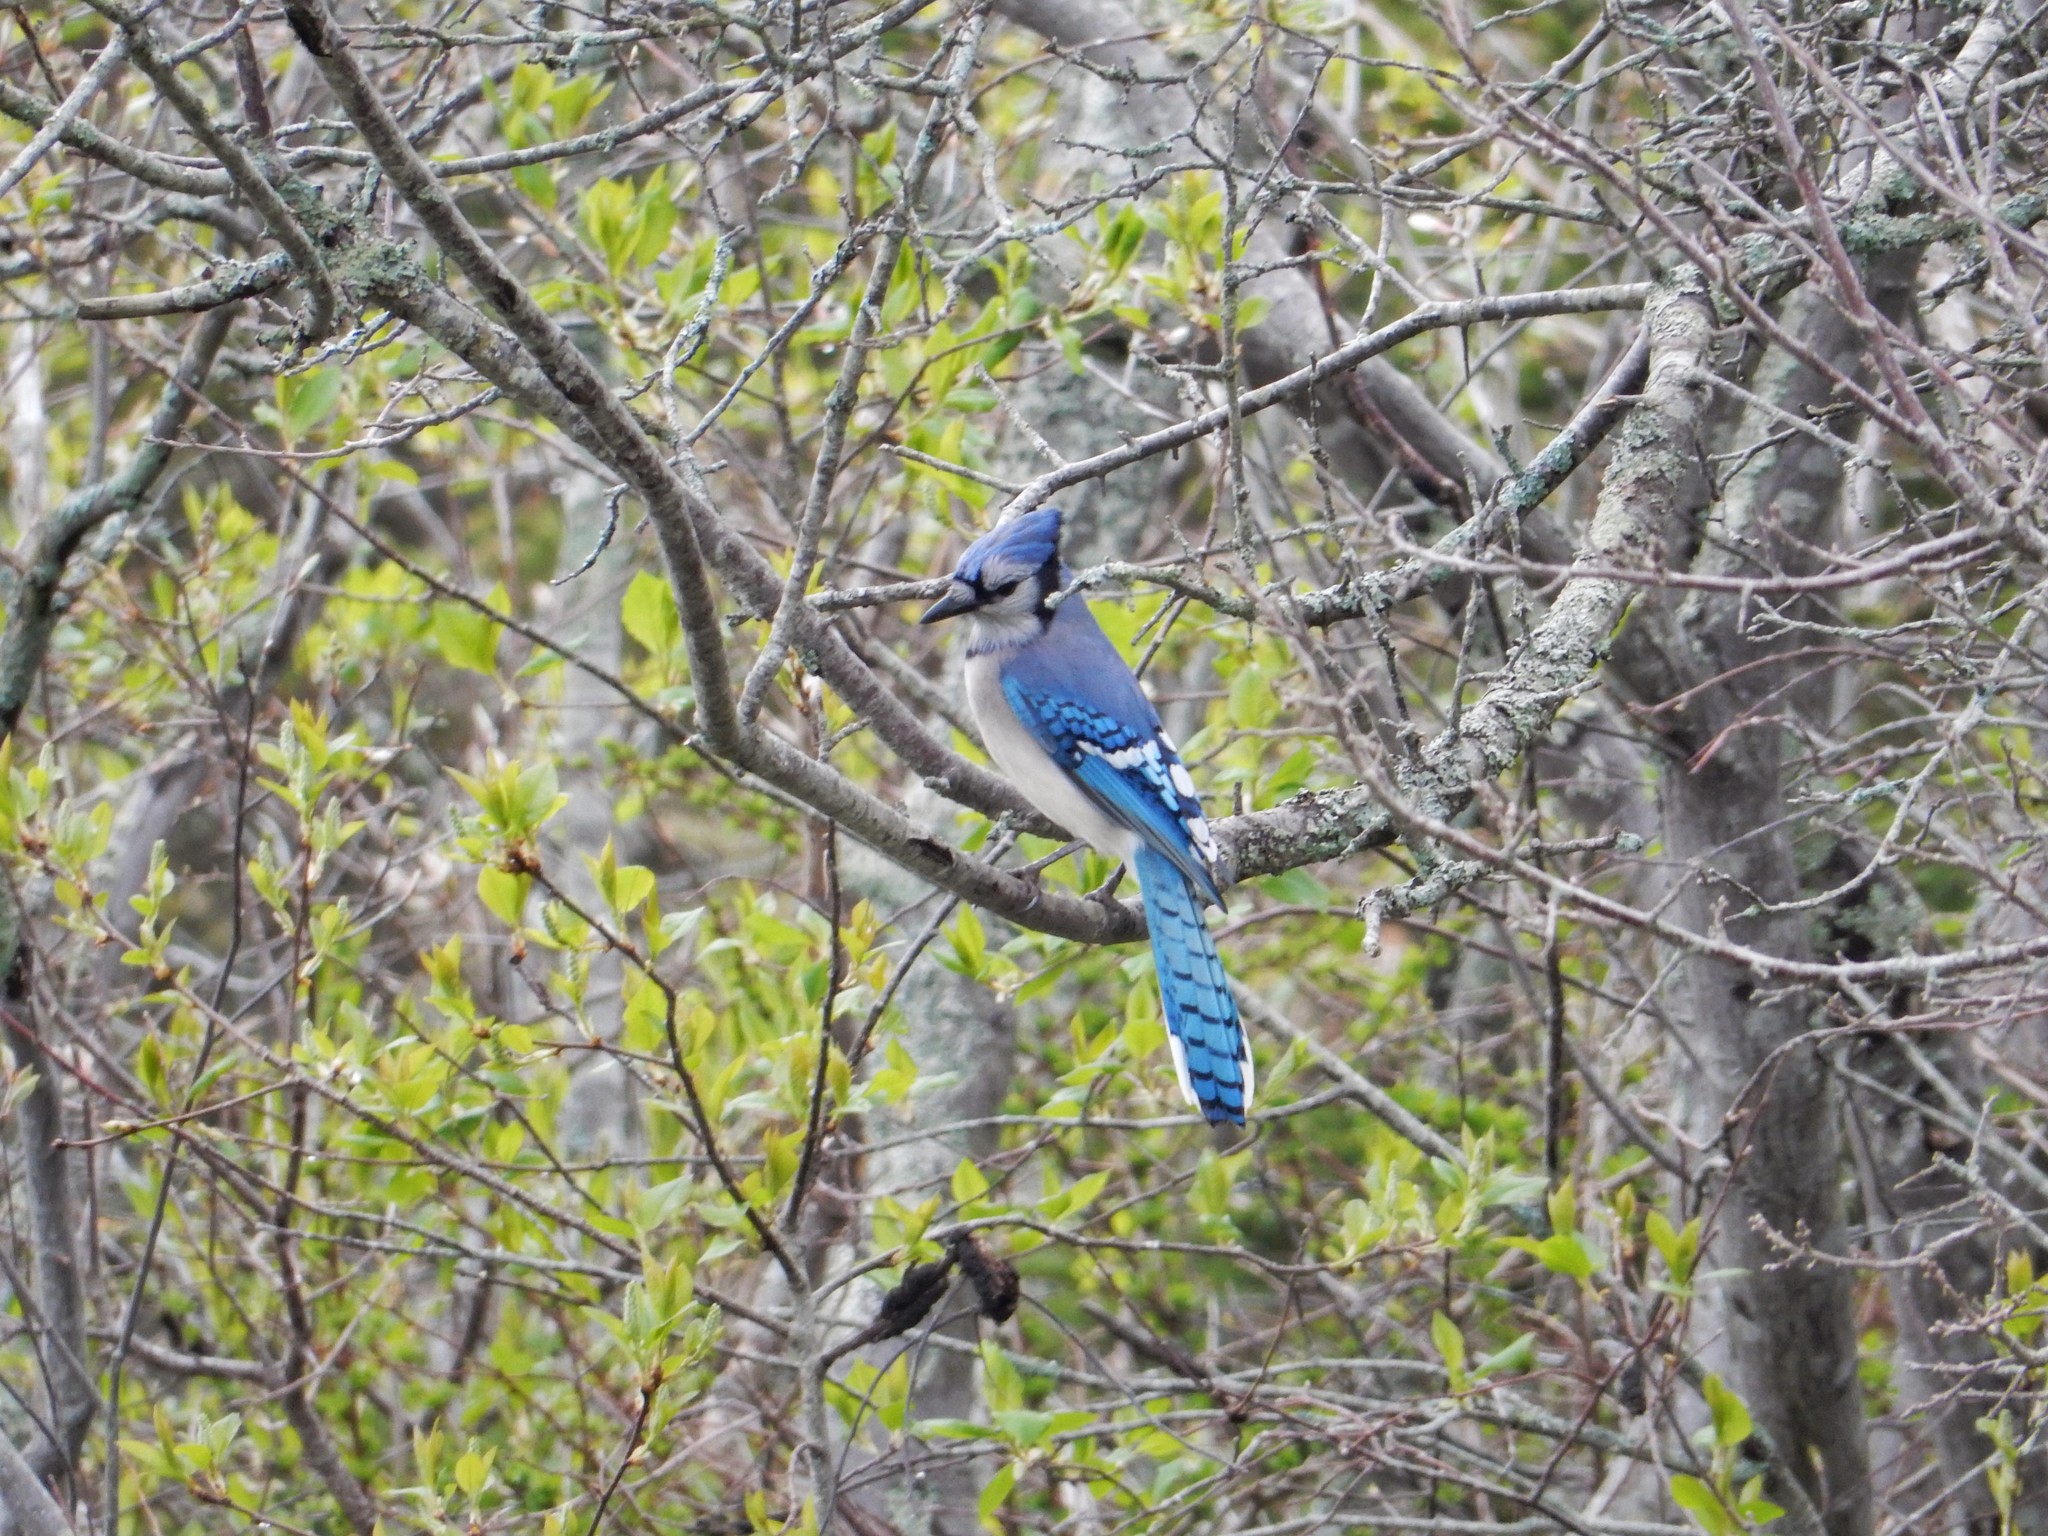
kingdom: Animalia
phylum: Chordata
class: Aves
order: Passeriformes
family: Corvidae
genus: Cyanocitta
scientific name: Cyanocitta cristata
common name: Blue jay
